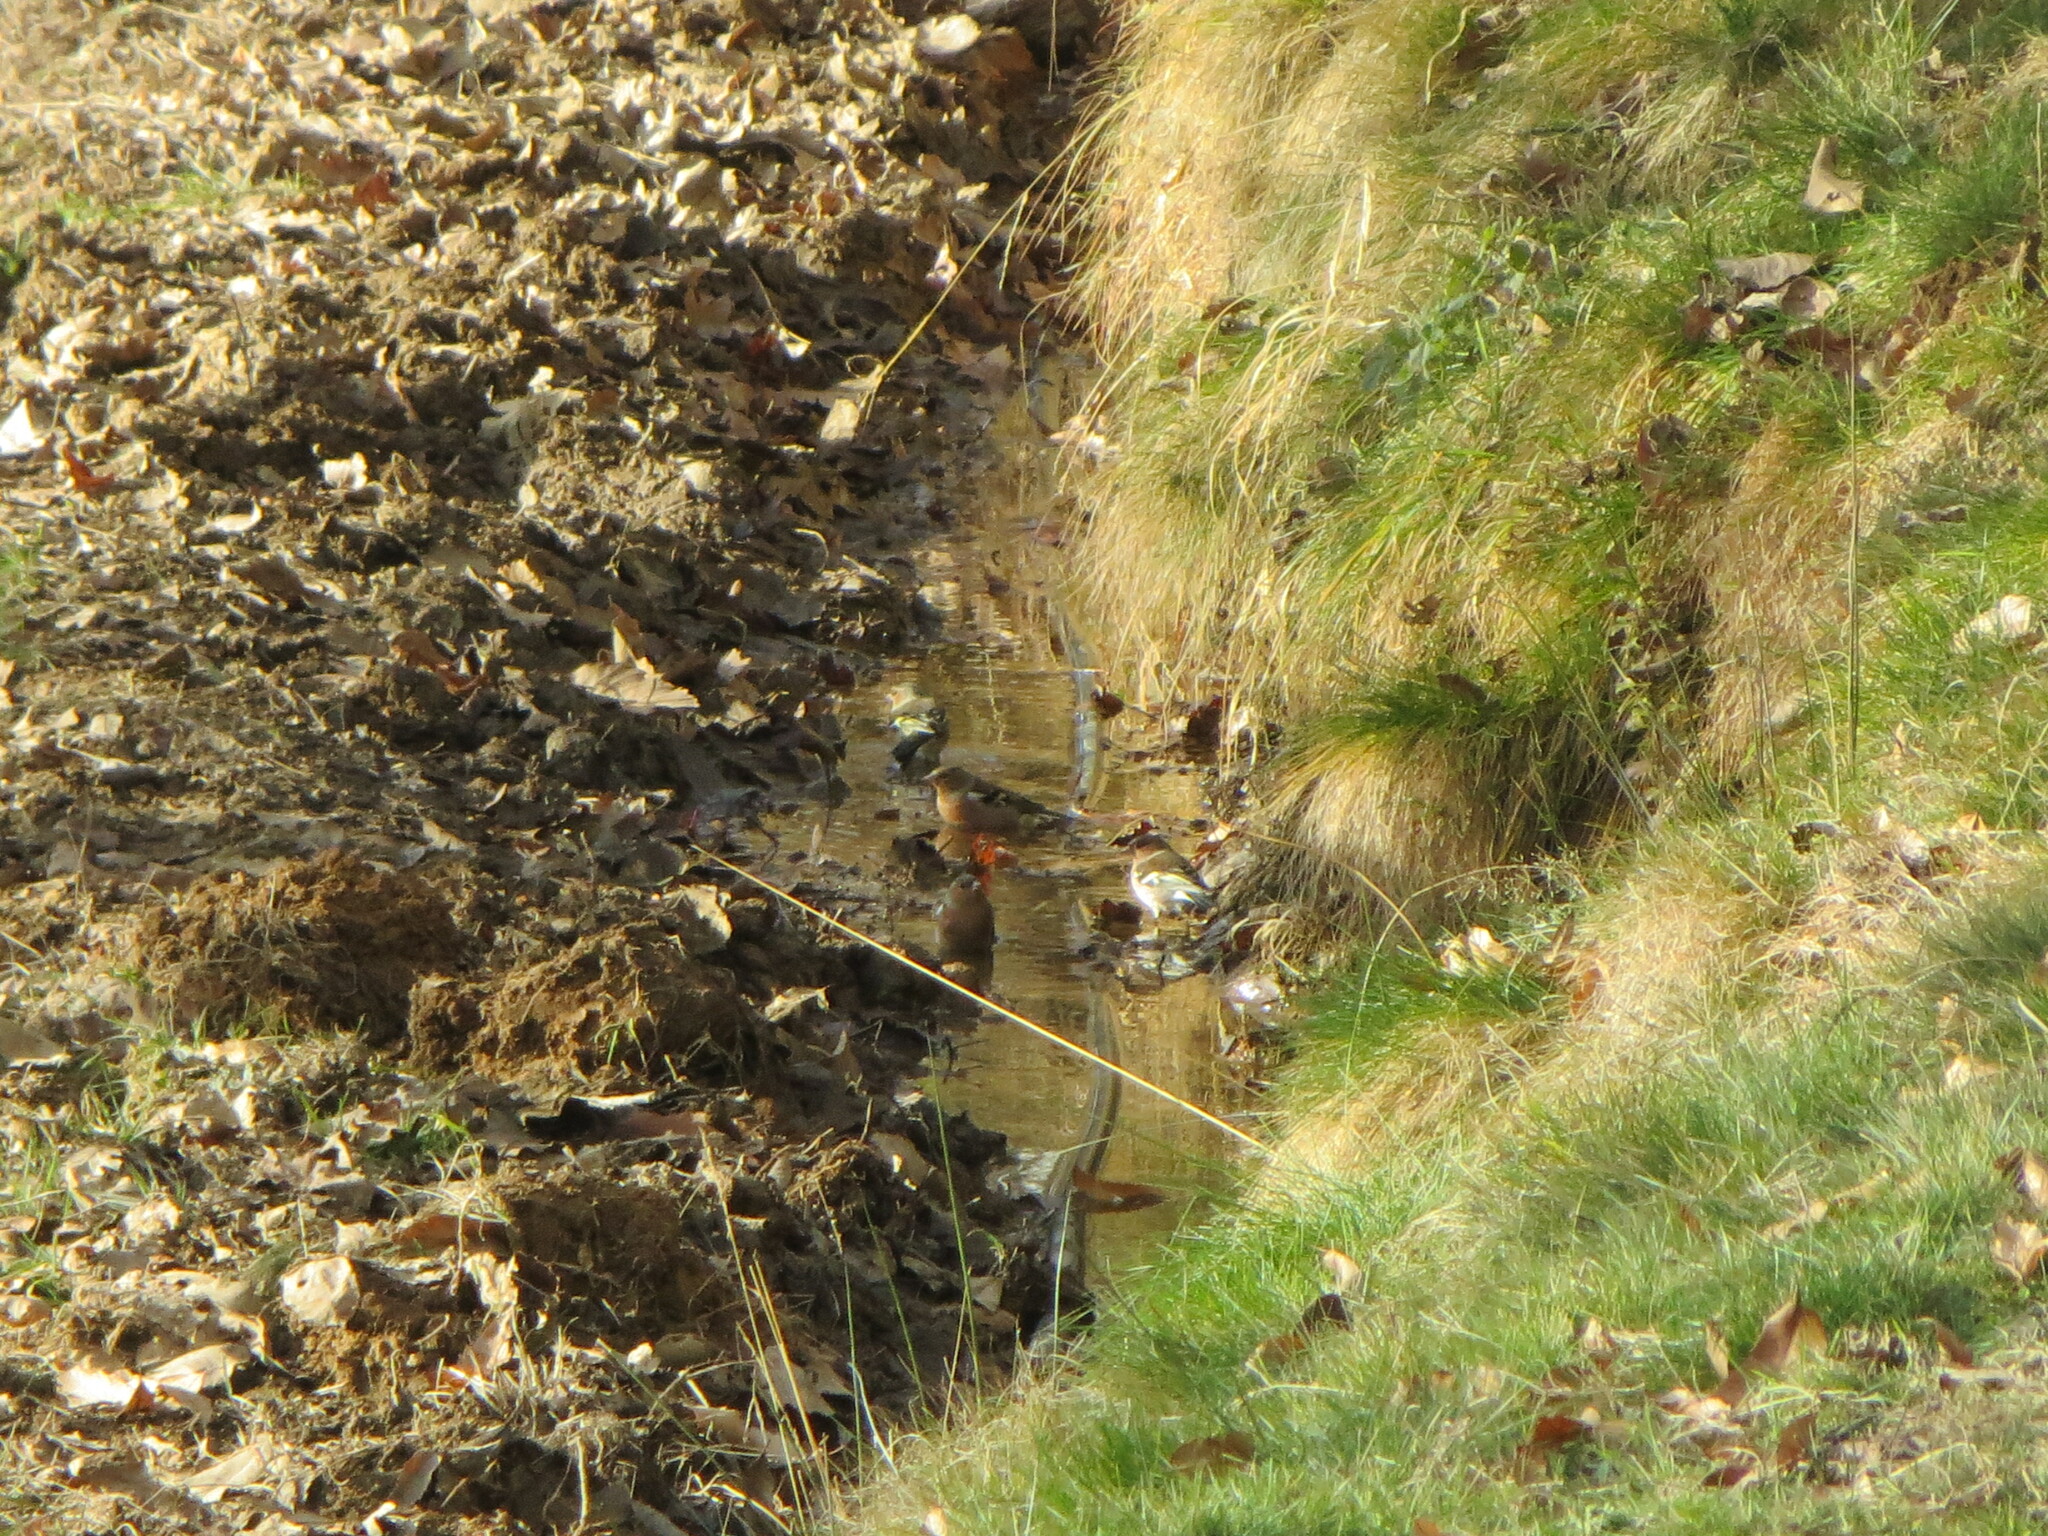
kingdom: Animalia
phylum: Chordata
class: Aves
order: Passeriformes
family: Fringillidae
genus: Fringilla
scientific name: Fringilla coelebs
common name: Common chaffinch
